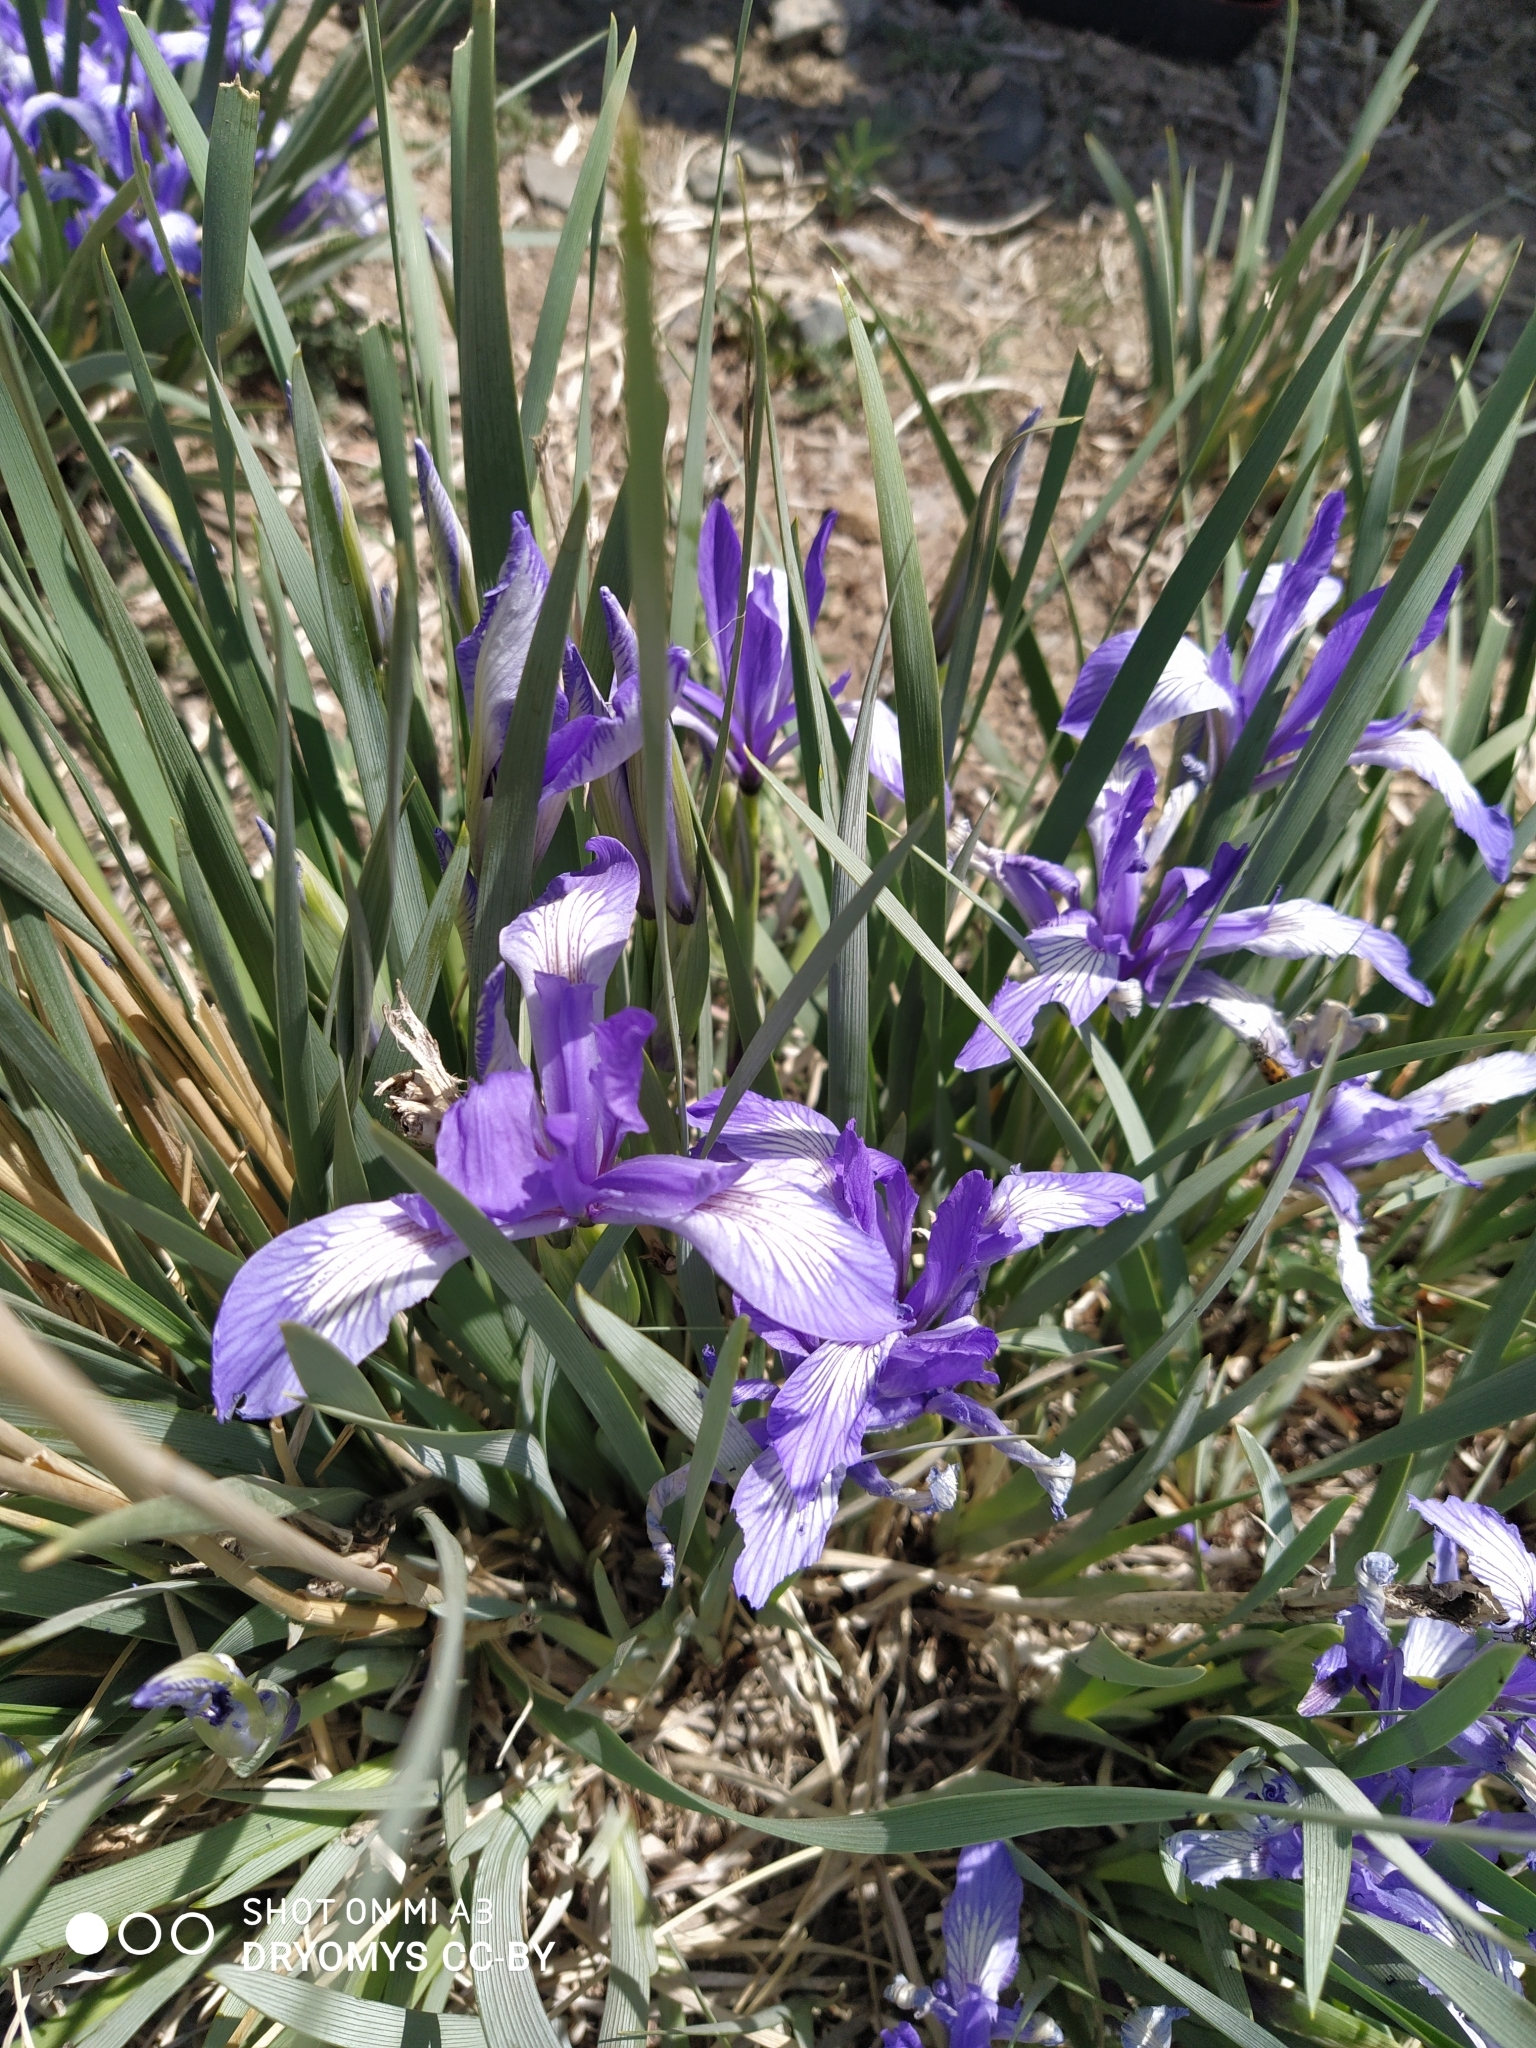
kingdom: Plantae
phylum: Tracheophyta
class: Liliopsida
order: Asparagales
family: Iridaceae
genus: Iris
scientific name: Iris lactea
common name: White-flower chinese iris
